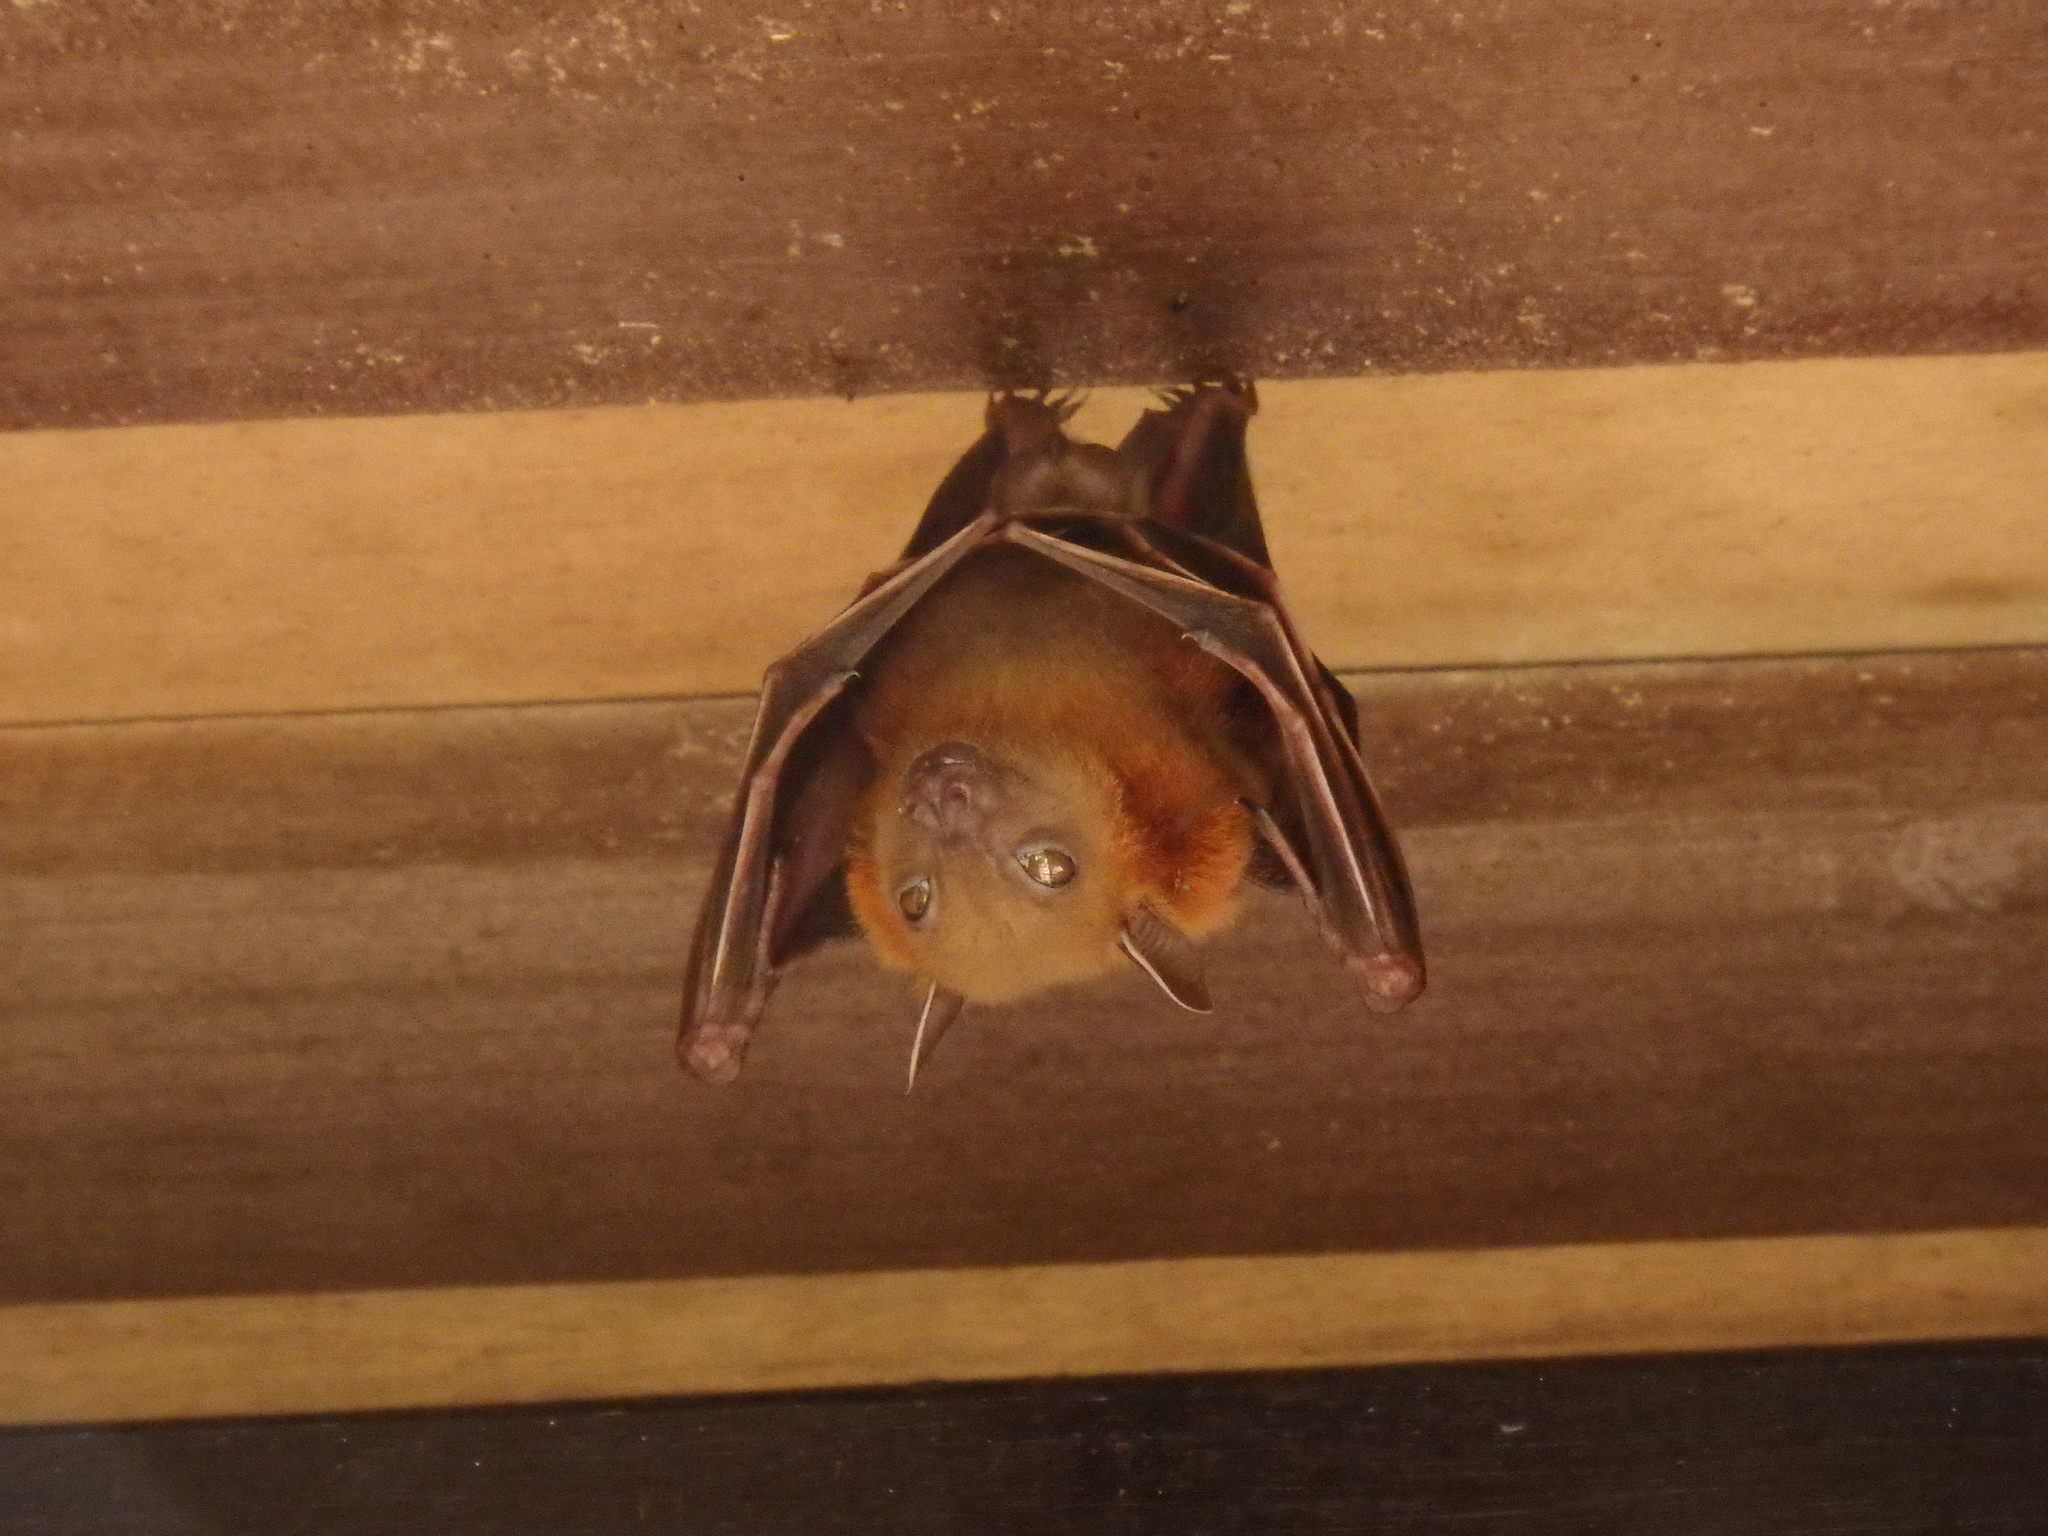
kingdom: Animalia
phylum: Chordata
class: Mammalia
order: Chiroptera
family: Pteropodidae
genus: Cynopterus
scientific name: Cynopterus brachyotis
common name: Lesser short-nosed fruit bat
